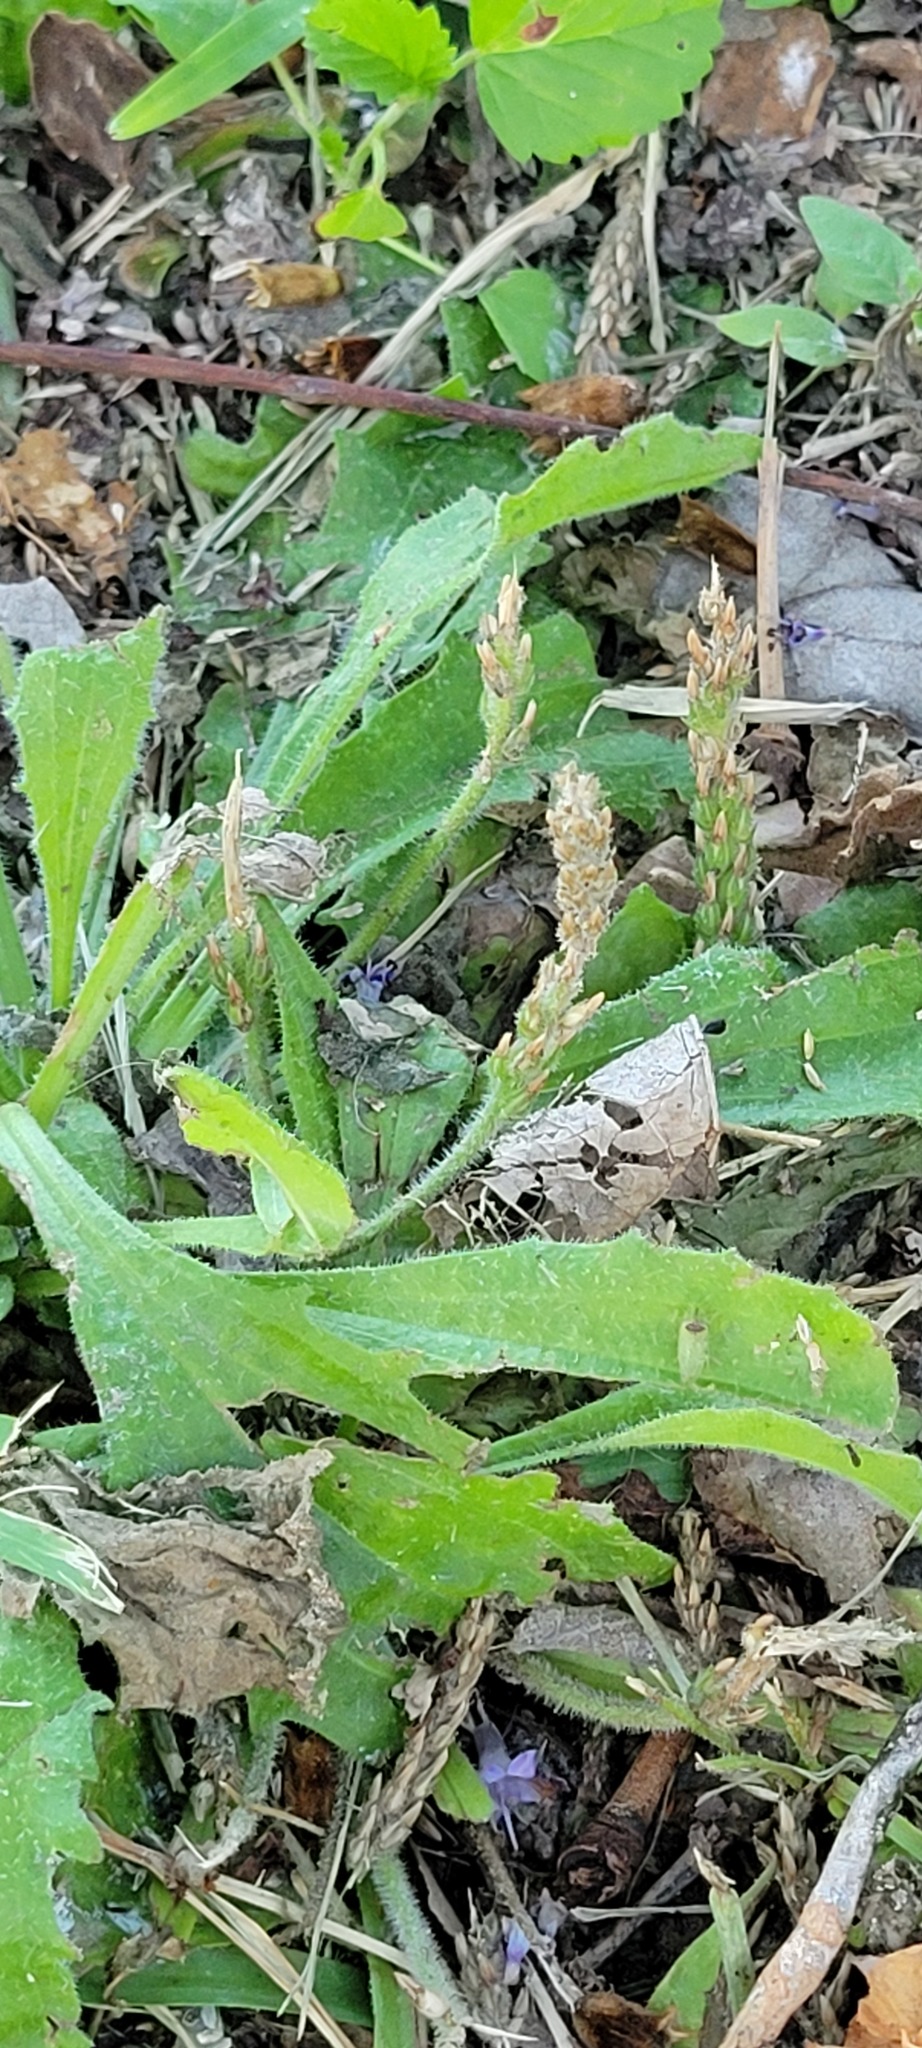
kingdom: Plantae
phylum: Tracheophyta
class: Magnoliopsida
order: Lamiales
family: Plantaginaceae
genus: Plantago
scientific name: Plantago rhodosperma
